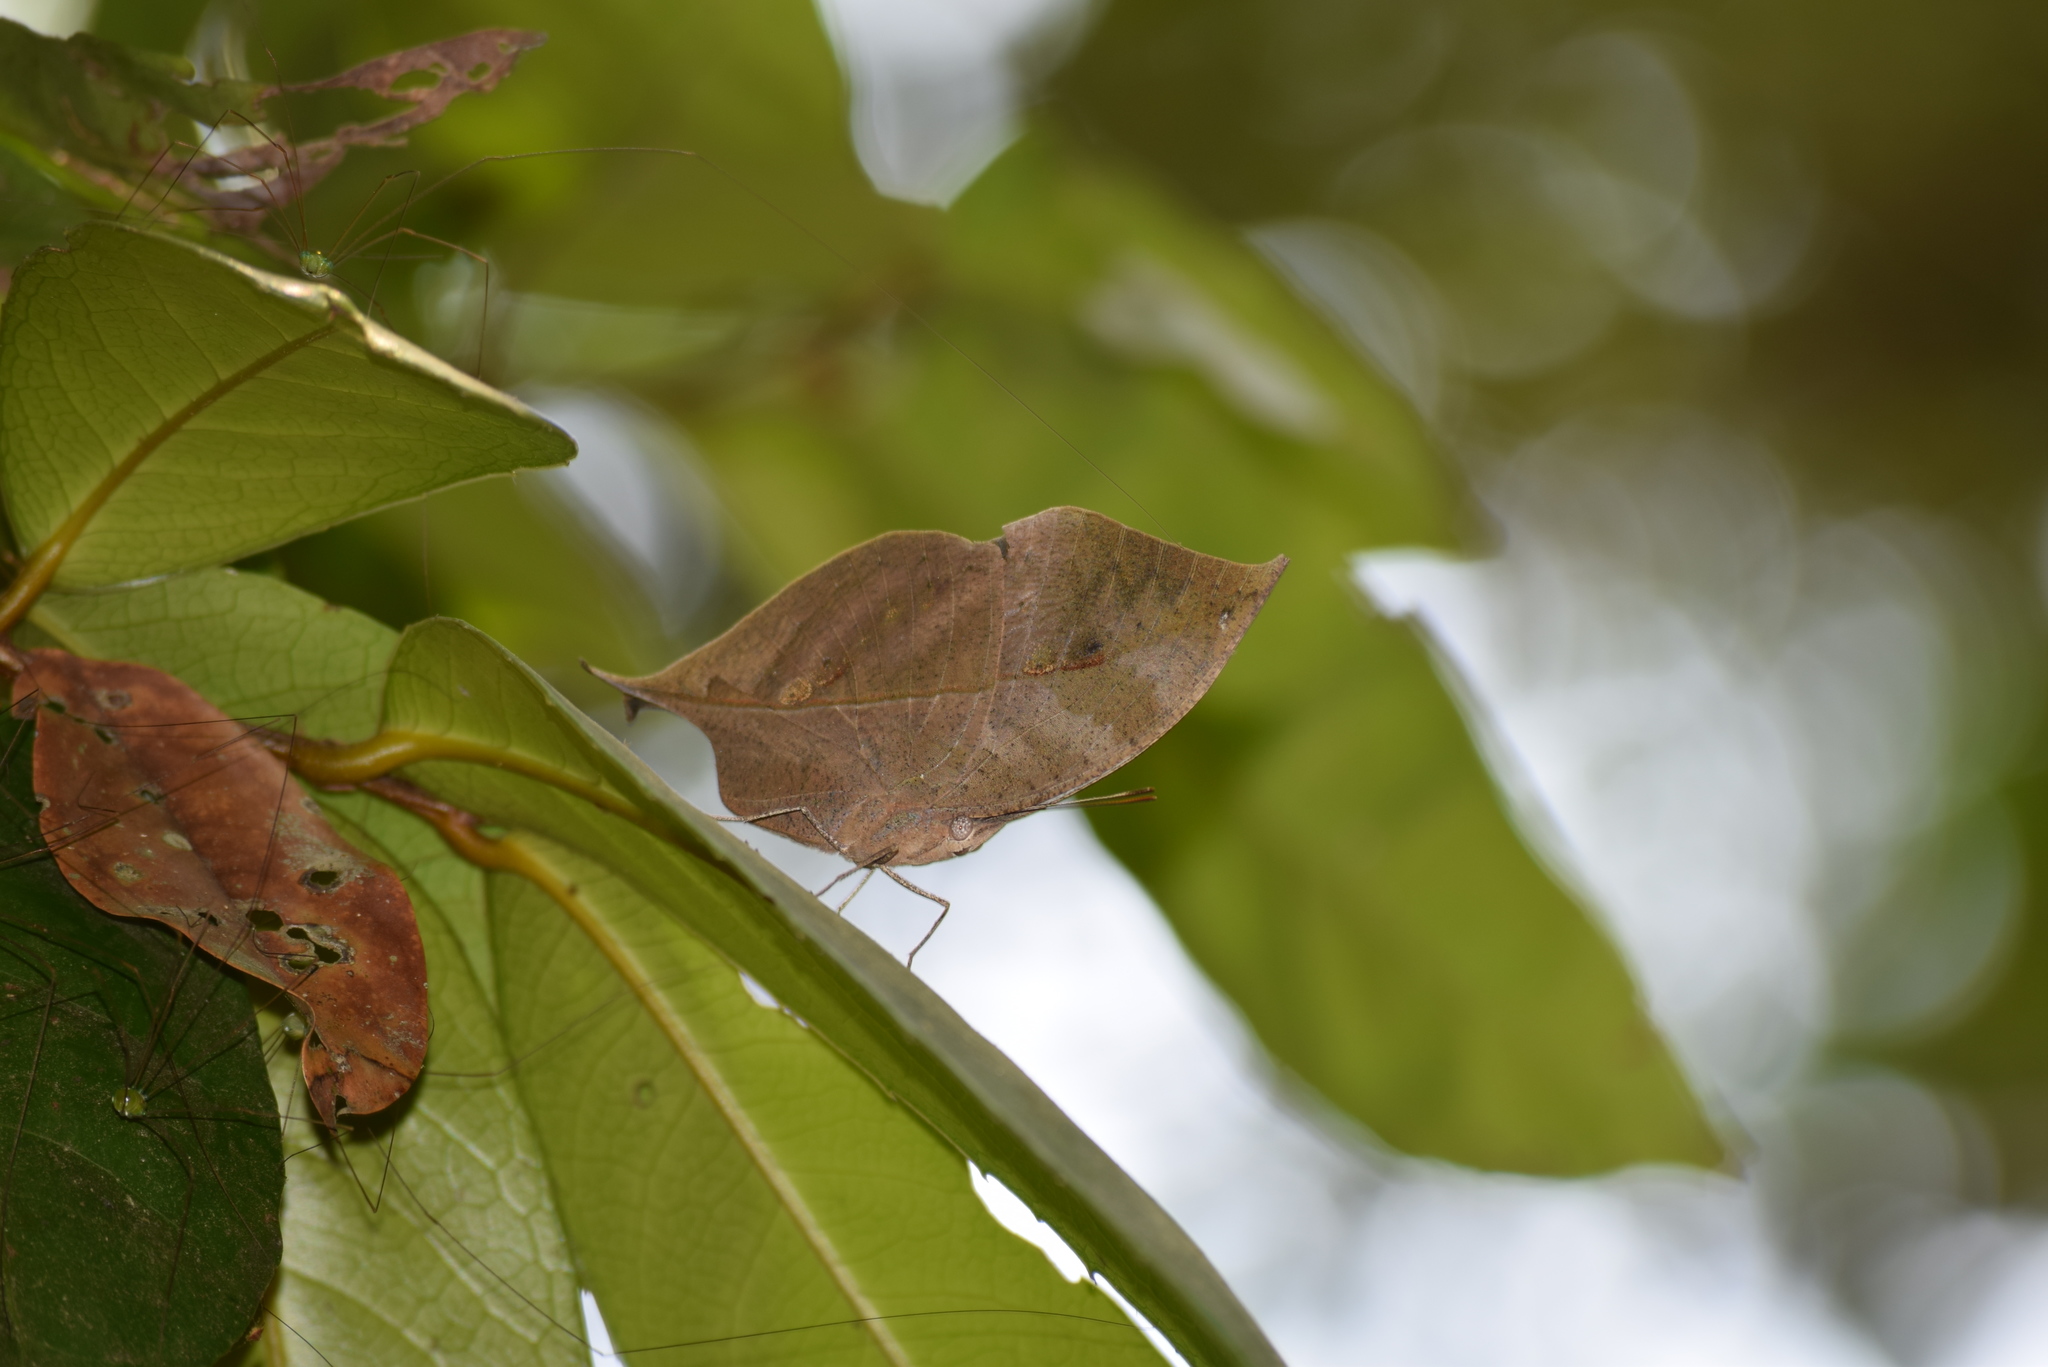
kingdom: Animalia
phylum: Arthropoda
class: Insecta
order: Lepidoptera
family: Nymphalidae
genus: Kallima
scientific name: Kallima horsfieldii
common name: Sahyadri blue oakleaf
